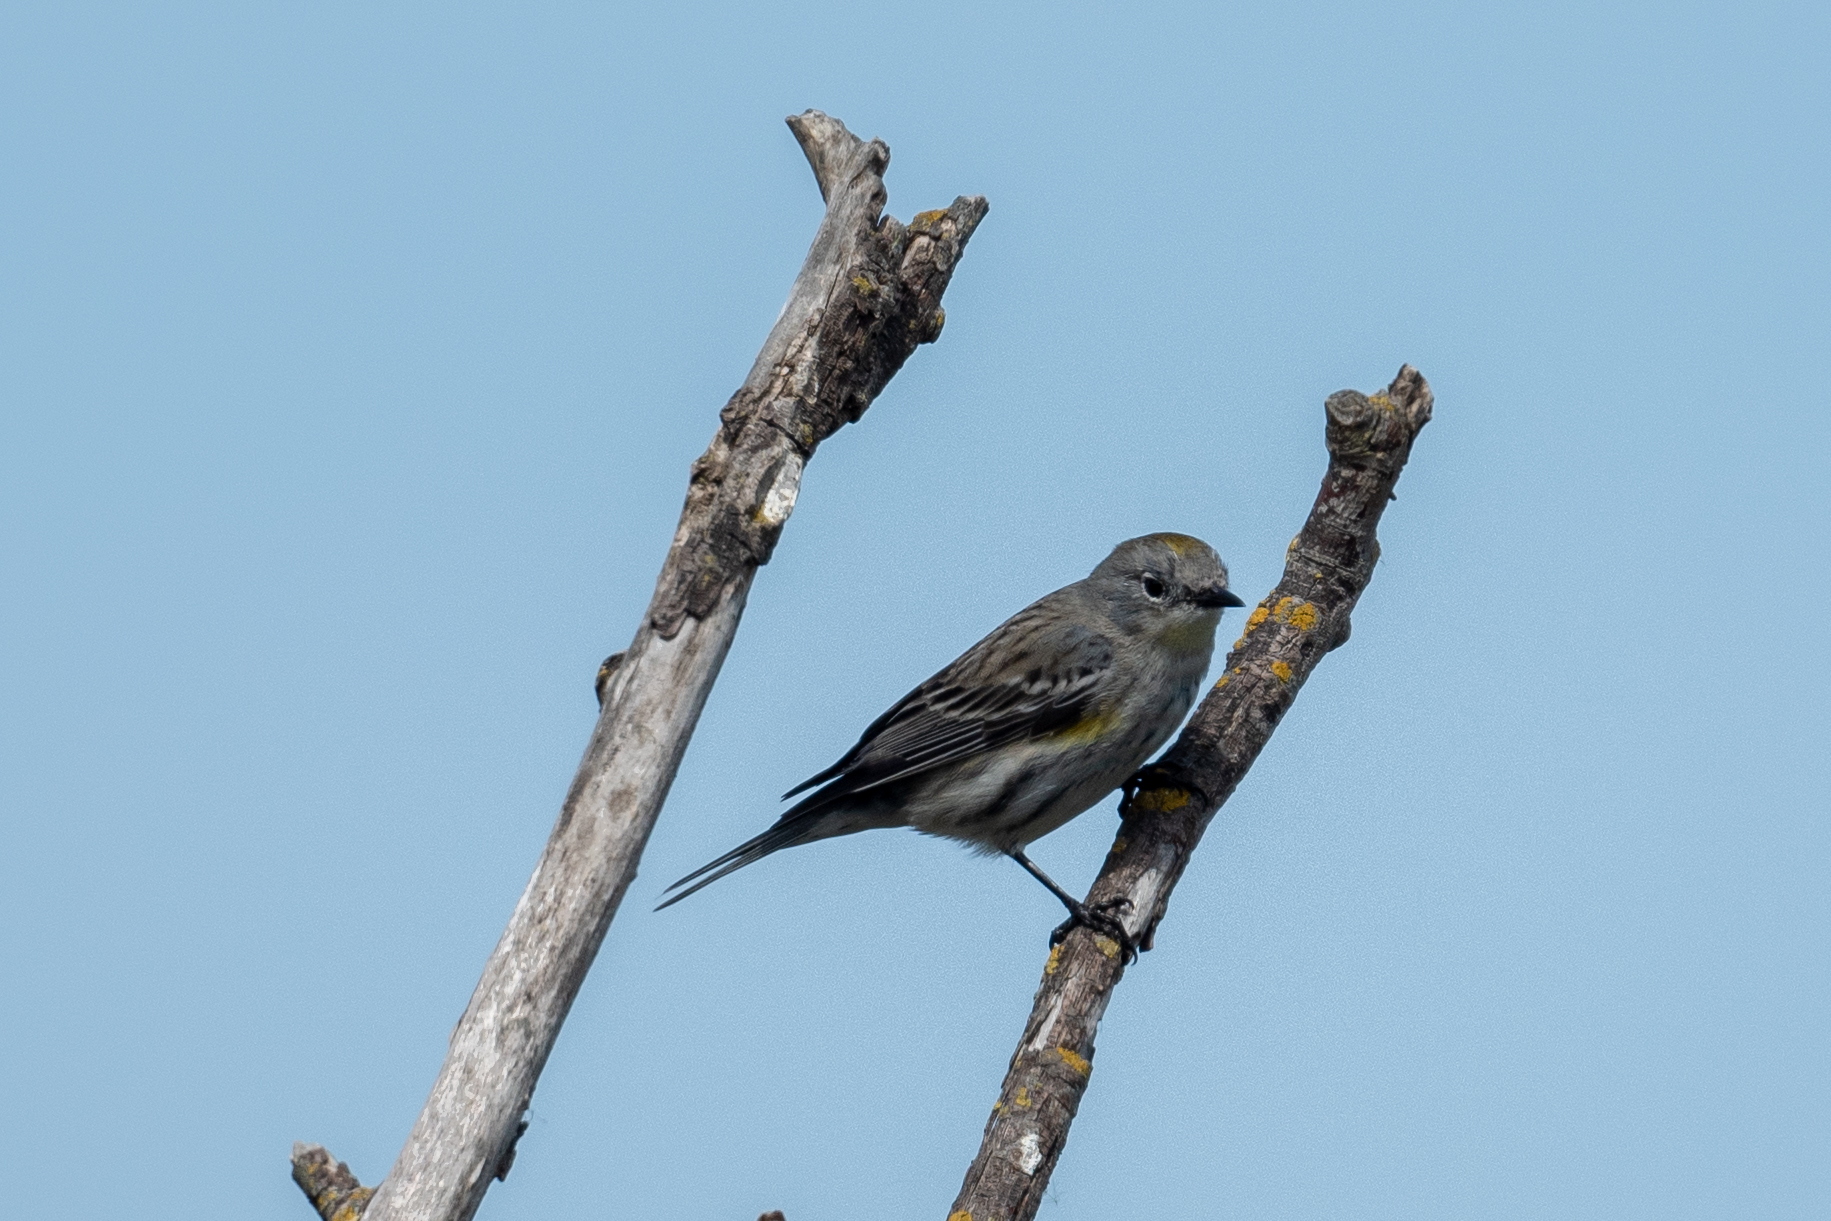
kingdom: Animalia
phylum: Chordata
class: Aves
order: Passeriformes
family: Parulidae
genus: Setophaga
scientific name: Setophaga coronata
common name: Myrtle warbler
